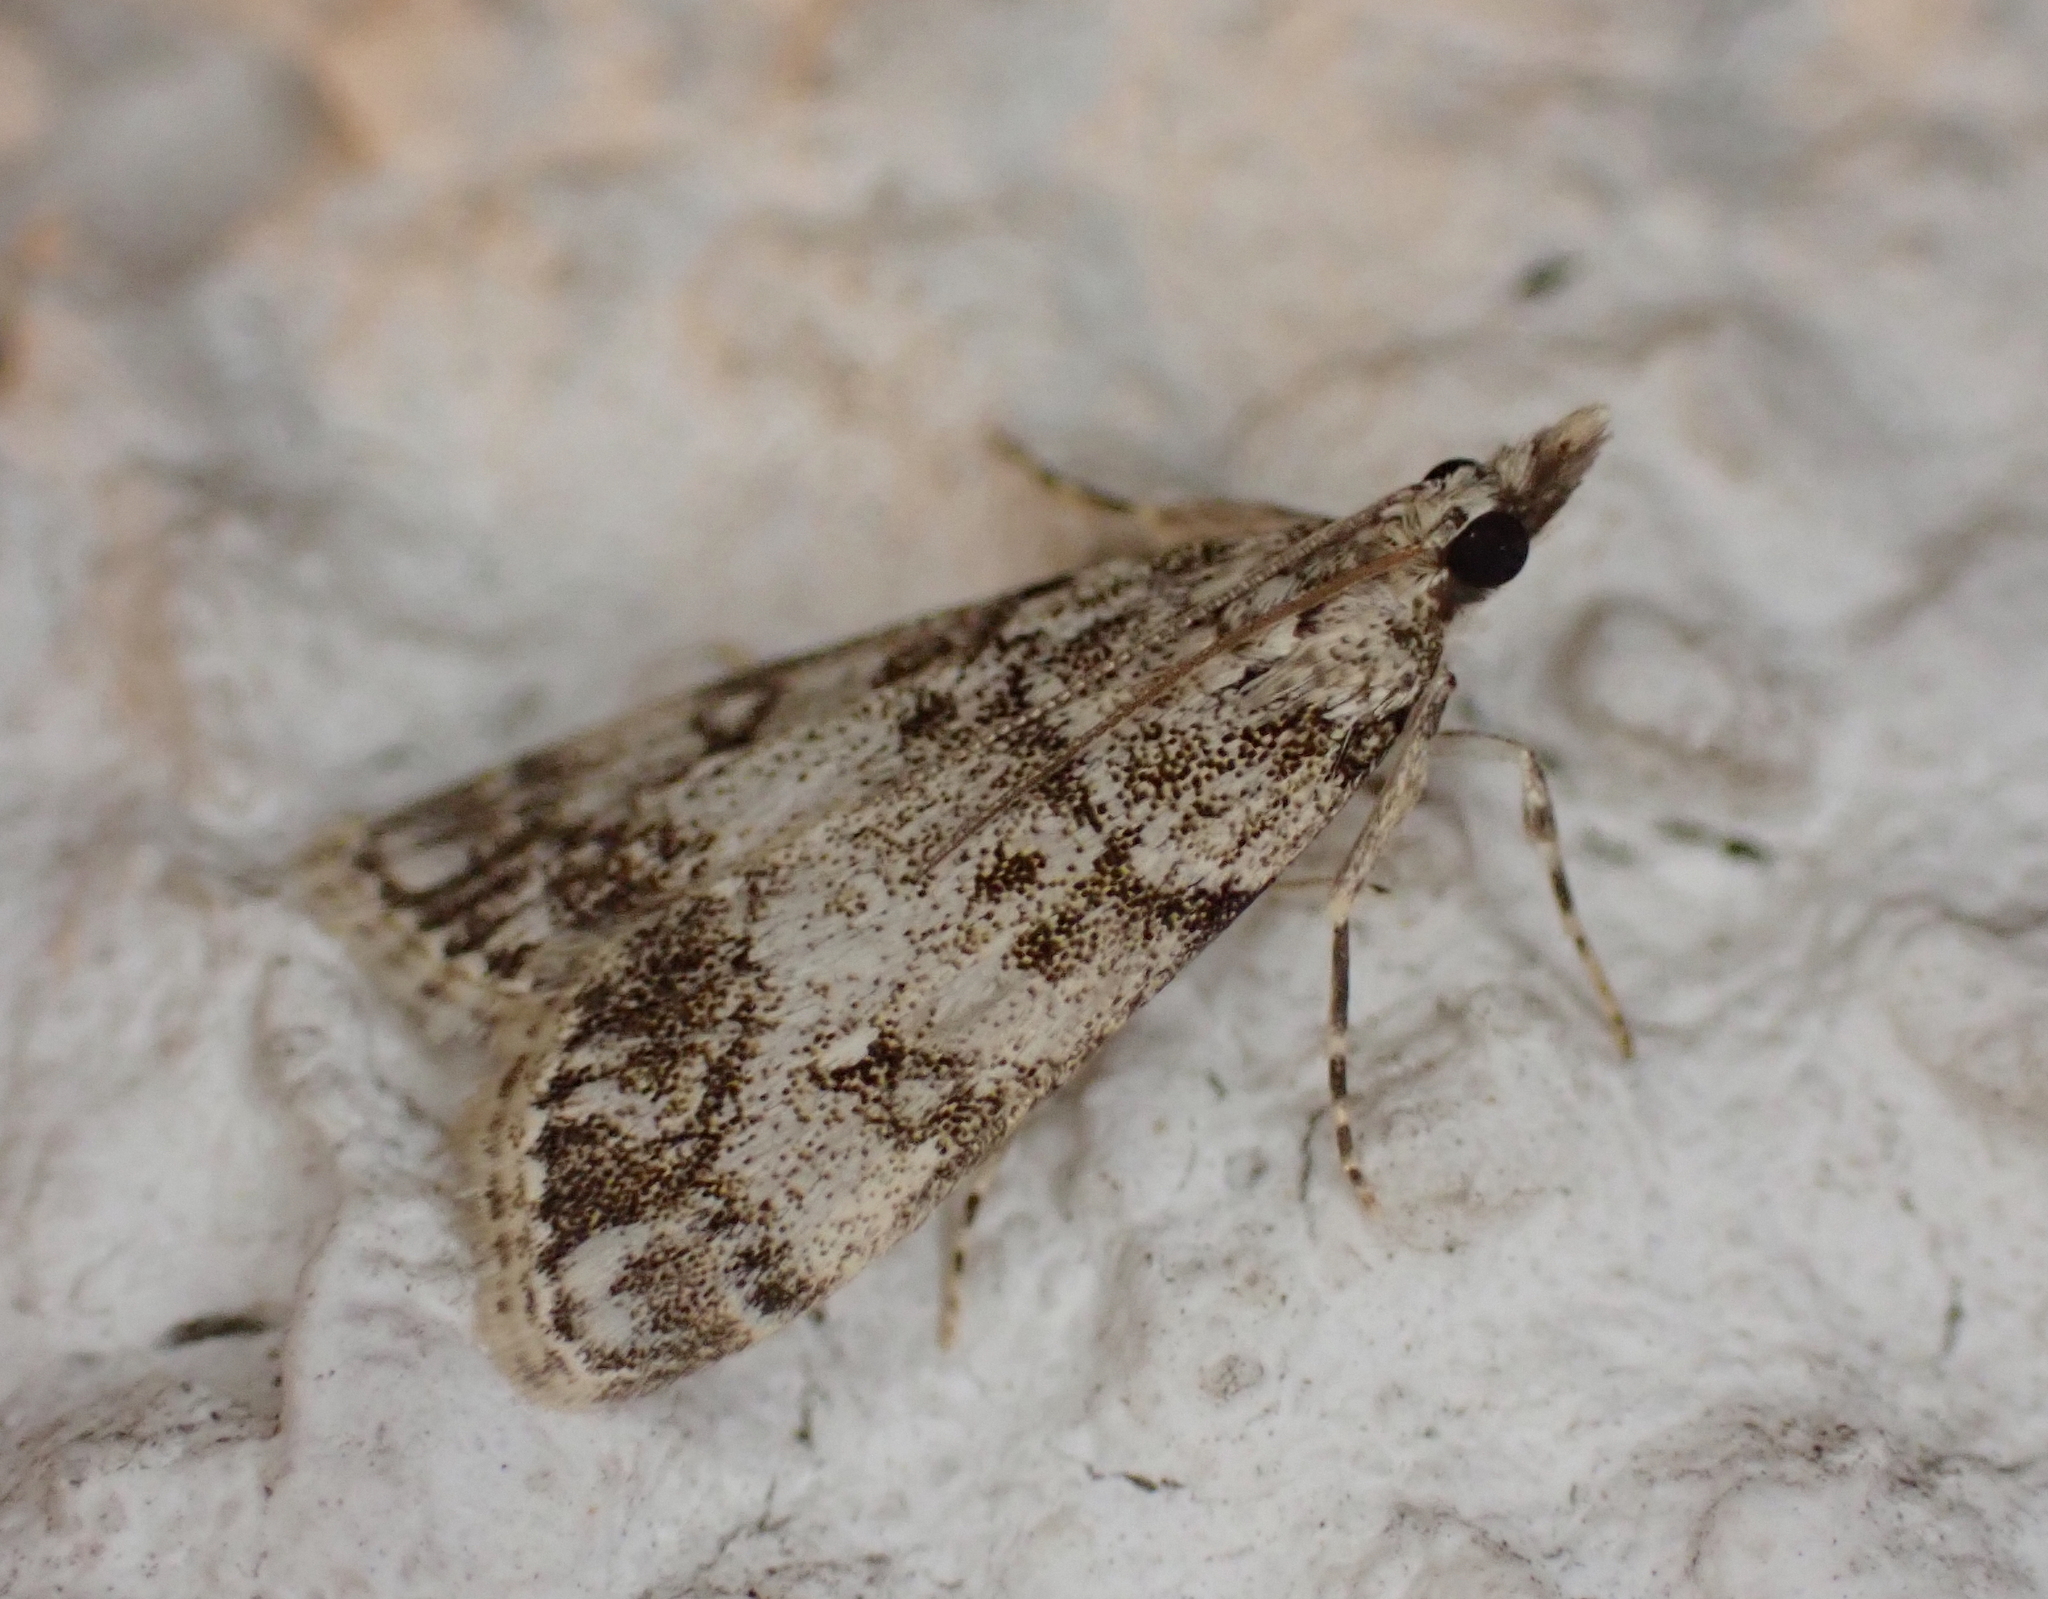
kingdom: Animalia
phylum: Arthropoda
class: Insecta
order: Lepidoptera
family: Crambidae
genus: Eudonia
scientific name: Eudonia lacustrata
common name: Little grey
